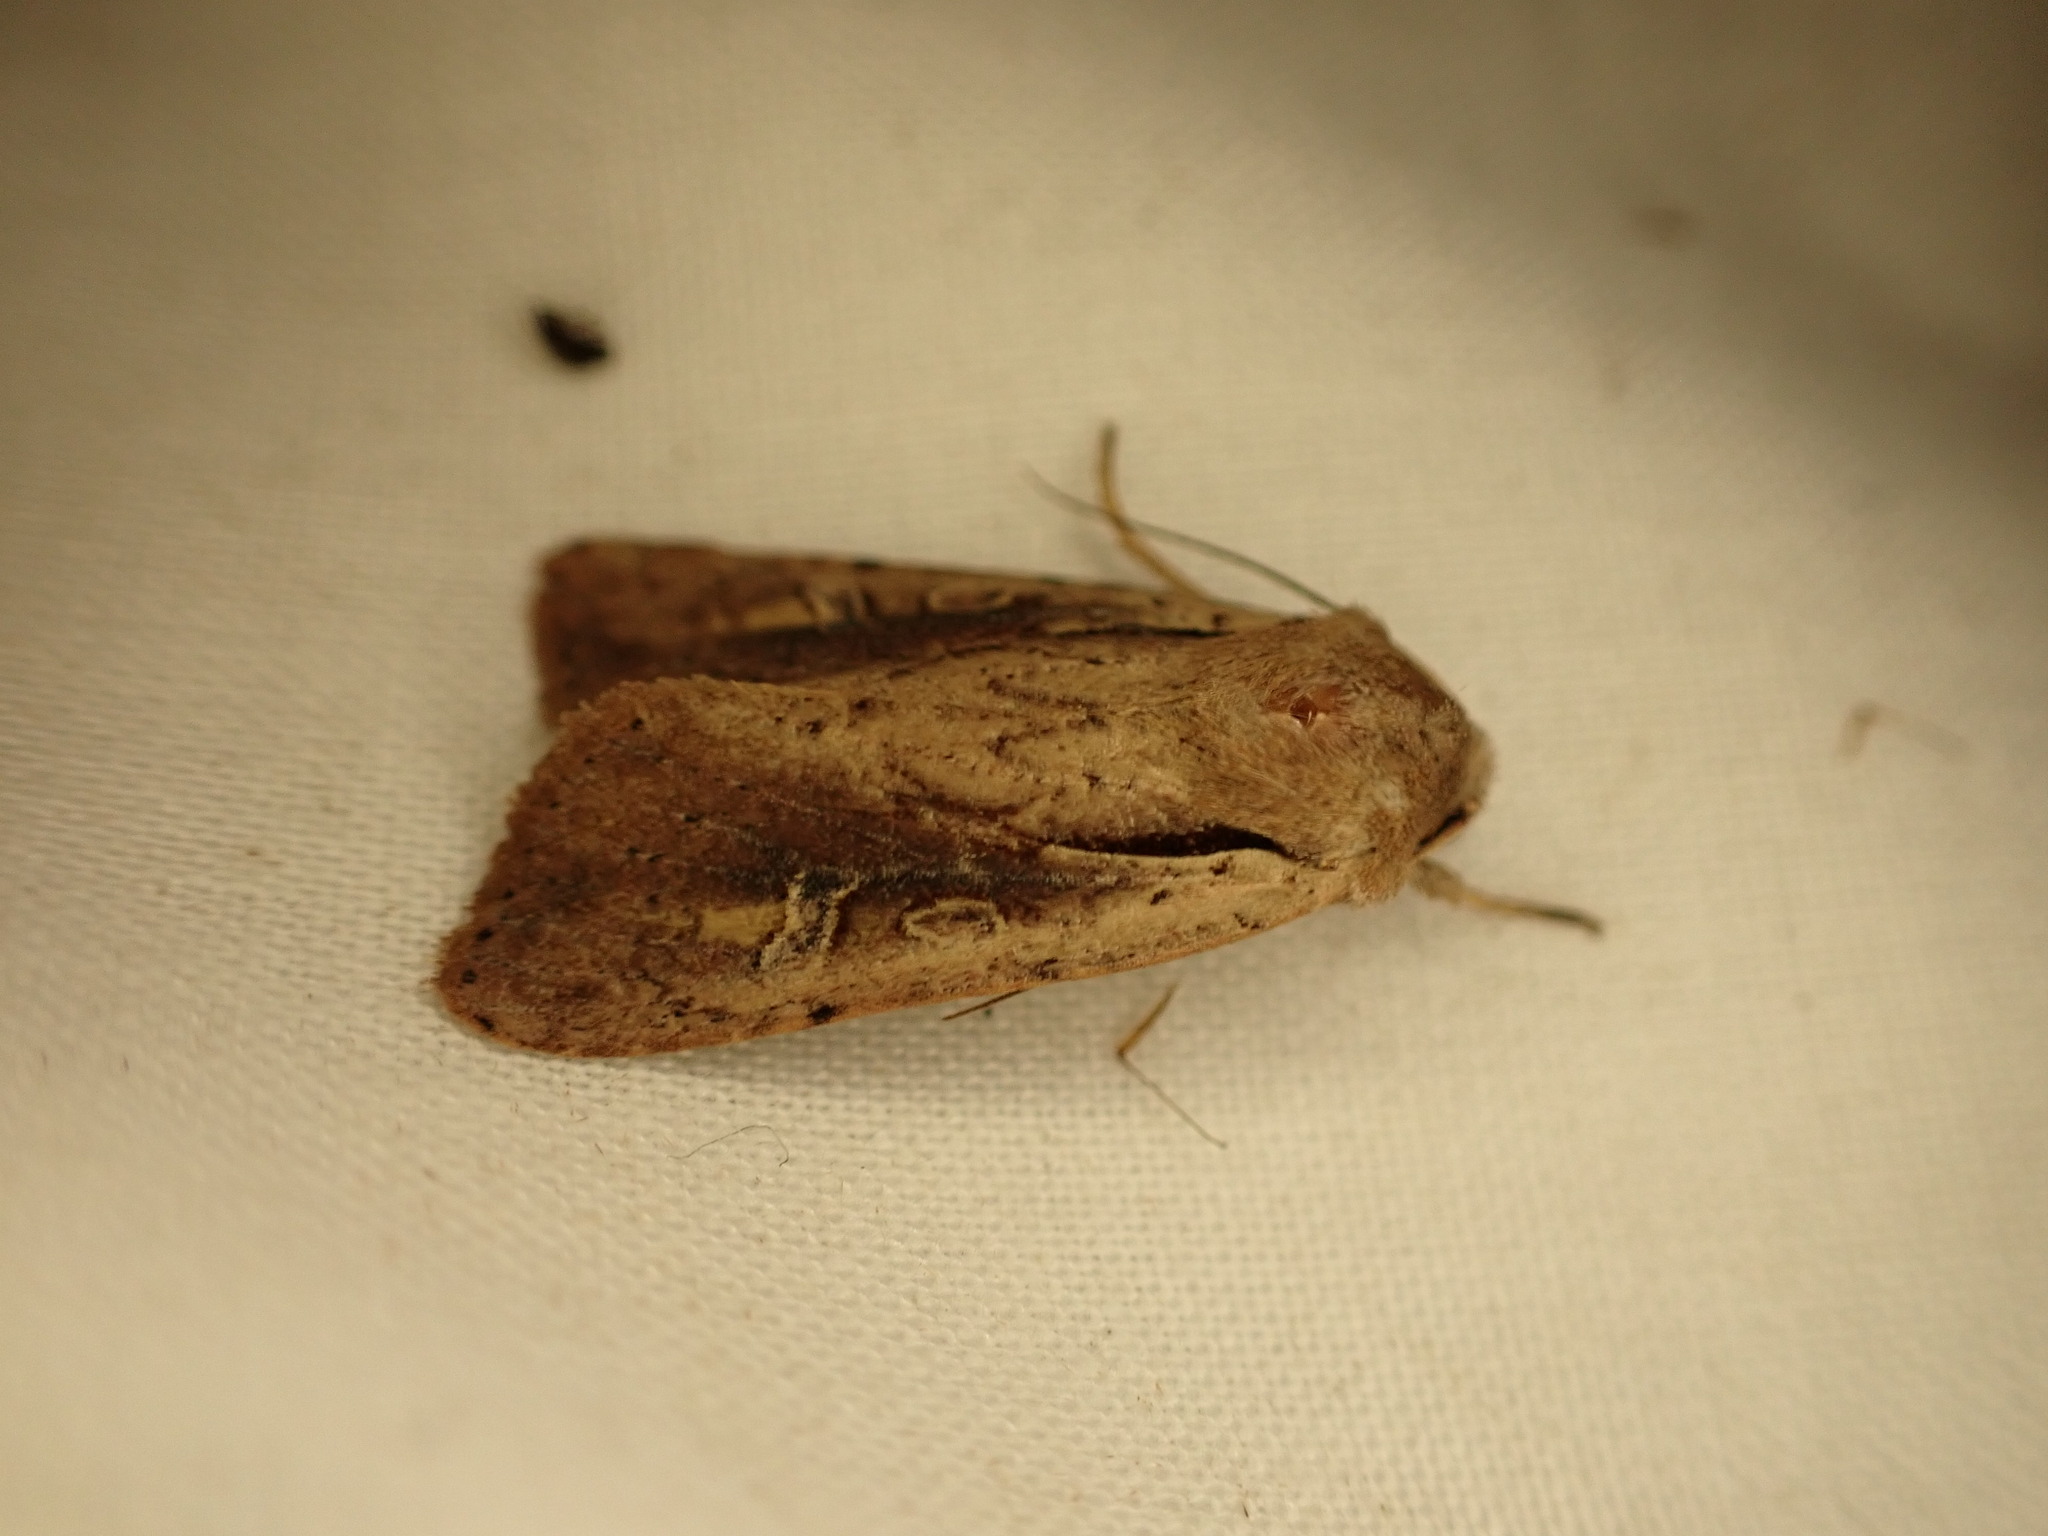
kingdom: Animalia
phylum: Arthropoda
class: Insecta
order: Lepidoptera
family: Noctuidae
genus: Ichneutica
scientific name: Ichneutica atristriga
